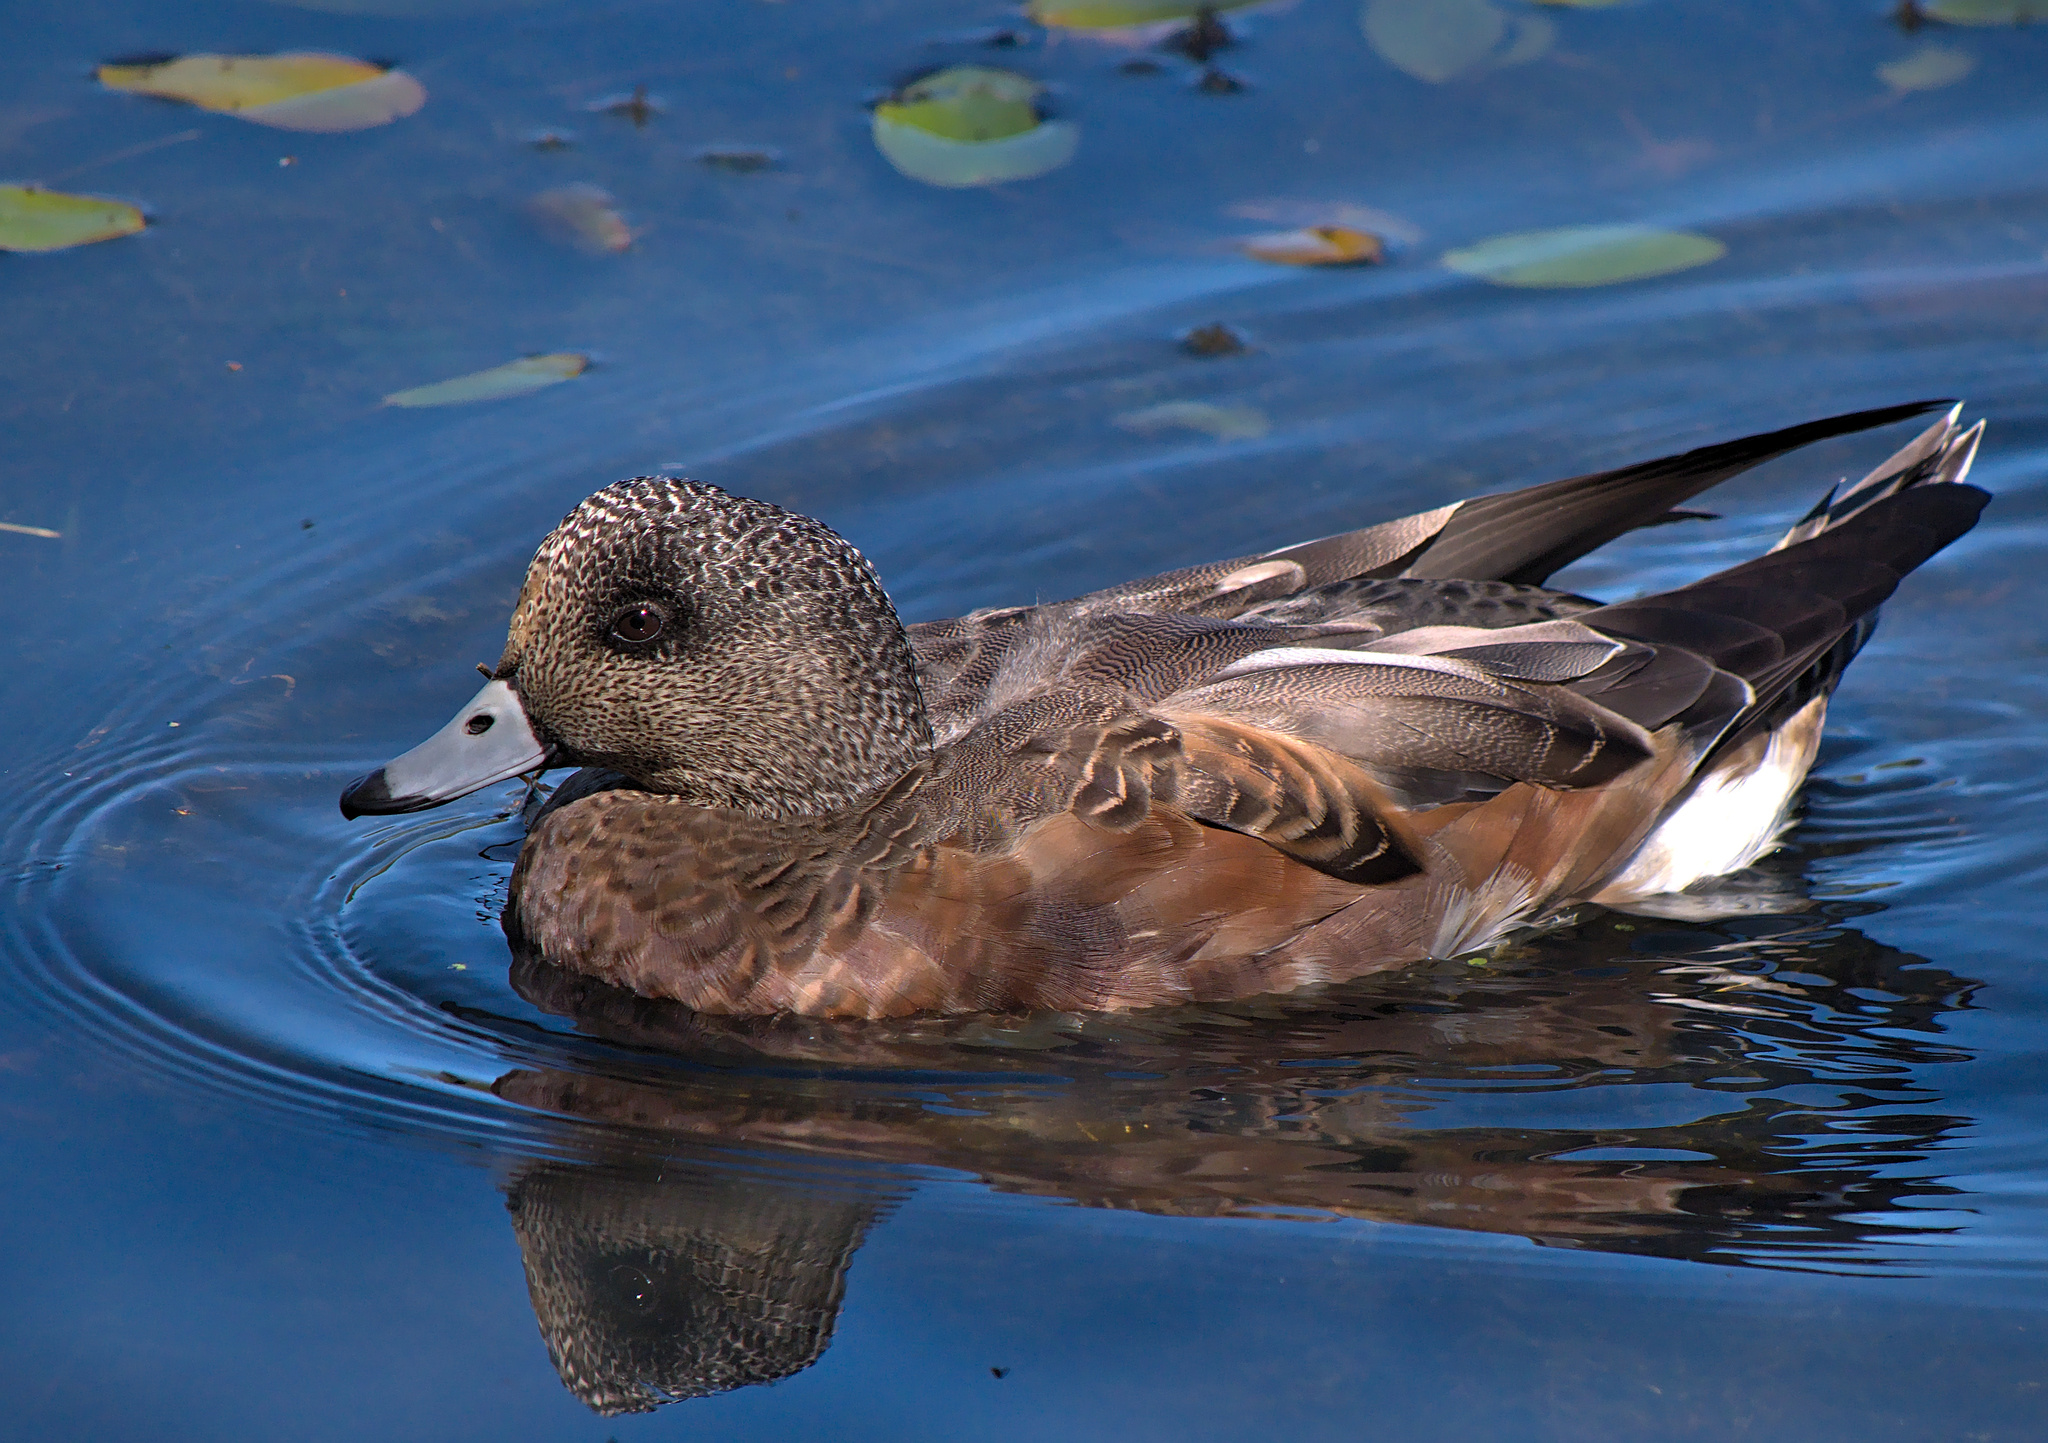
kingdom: Animalia
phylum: Chordata
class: Aves
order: Anseriformes
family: Anatidae
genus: Mareca
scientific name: Mareca americana
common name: American wigeon
